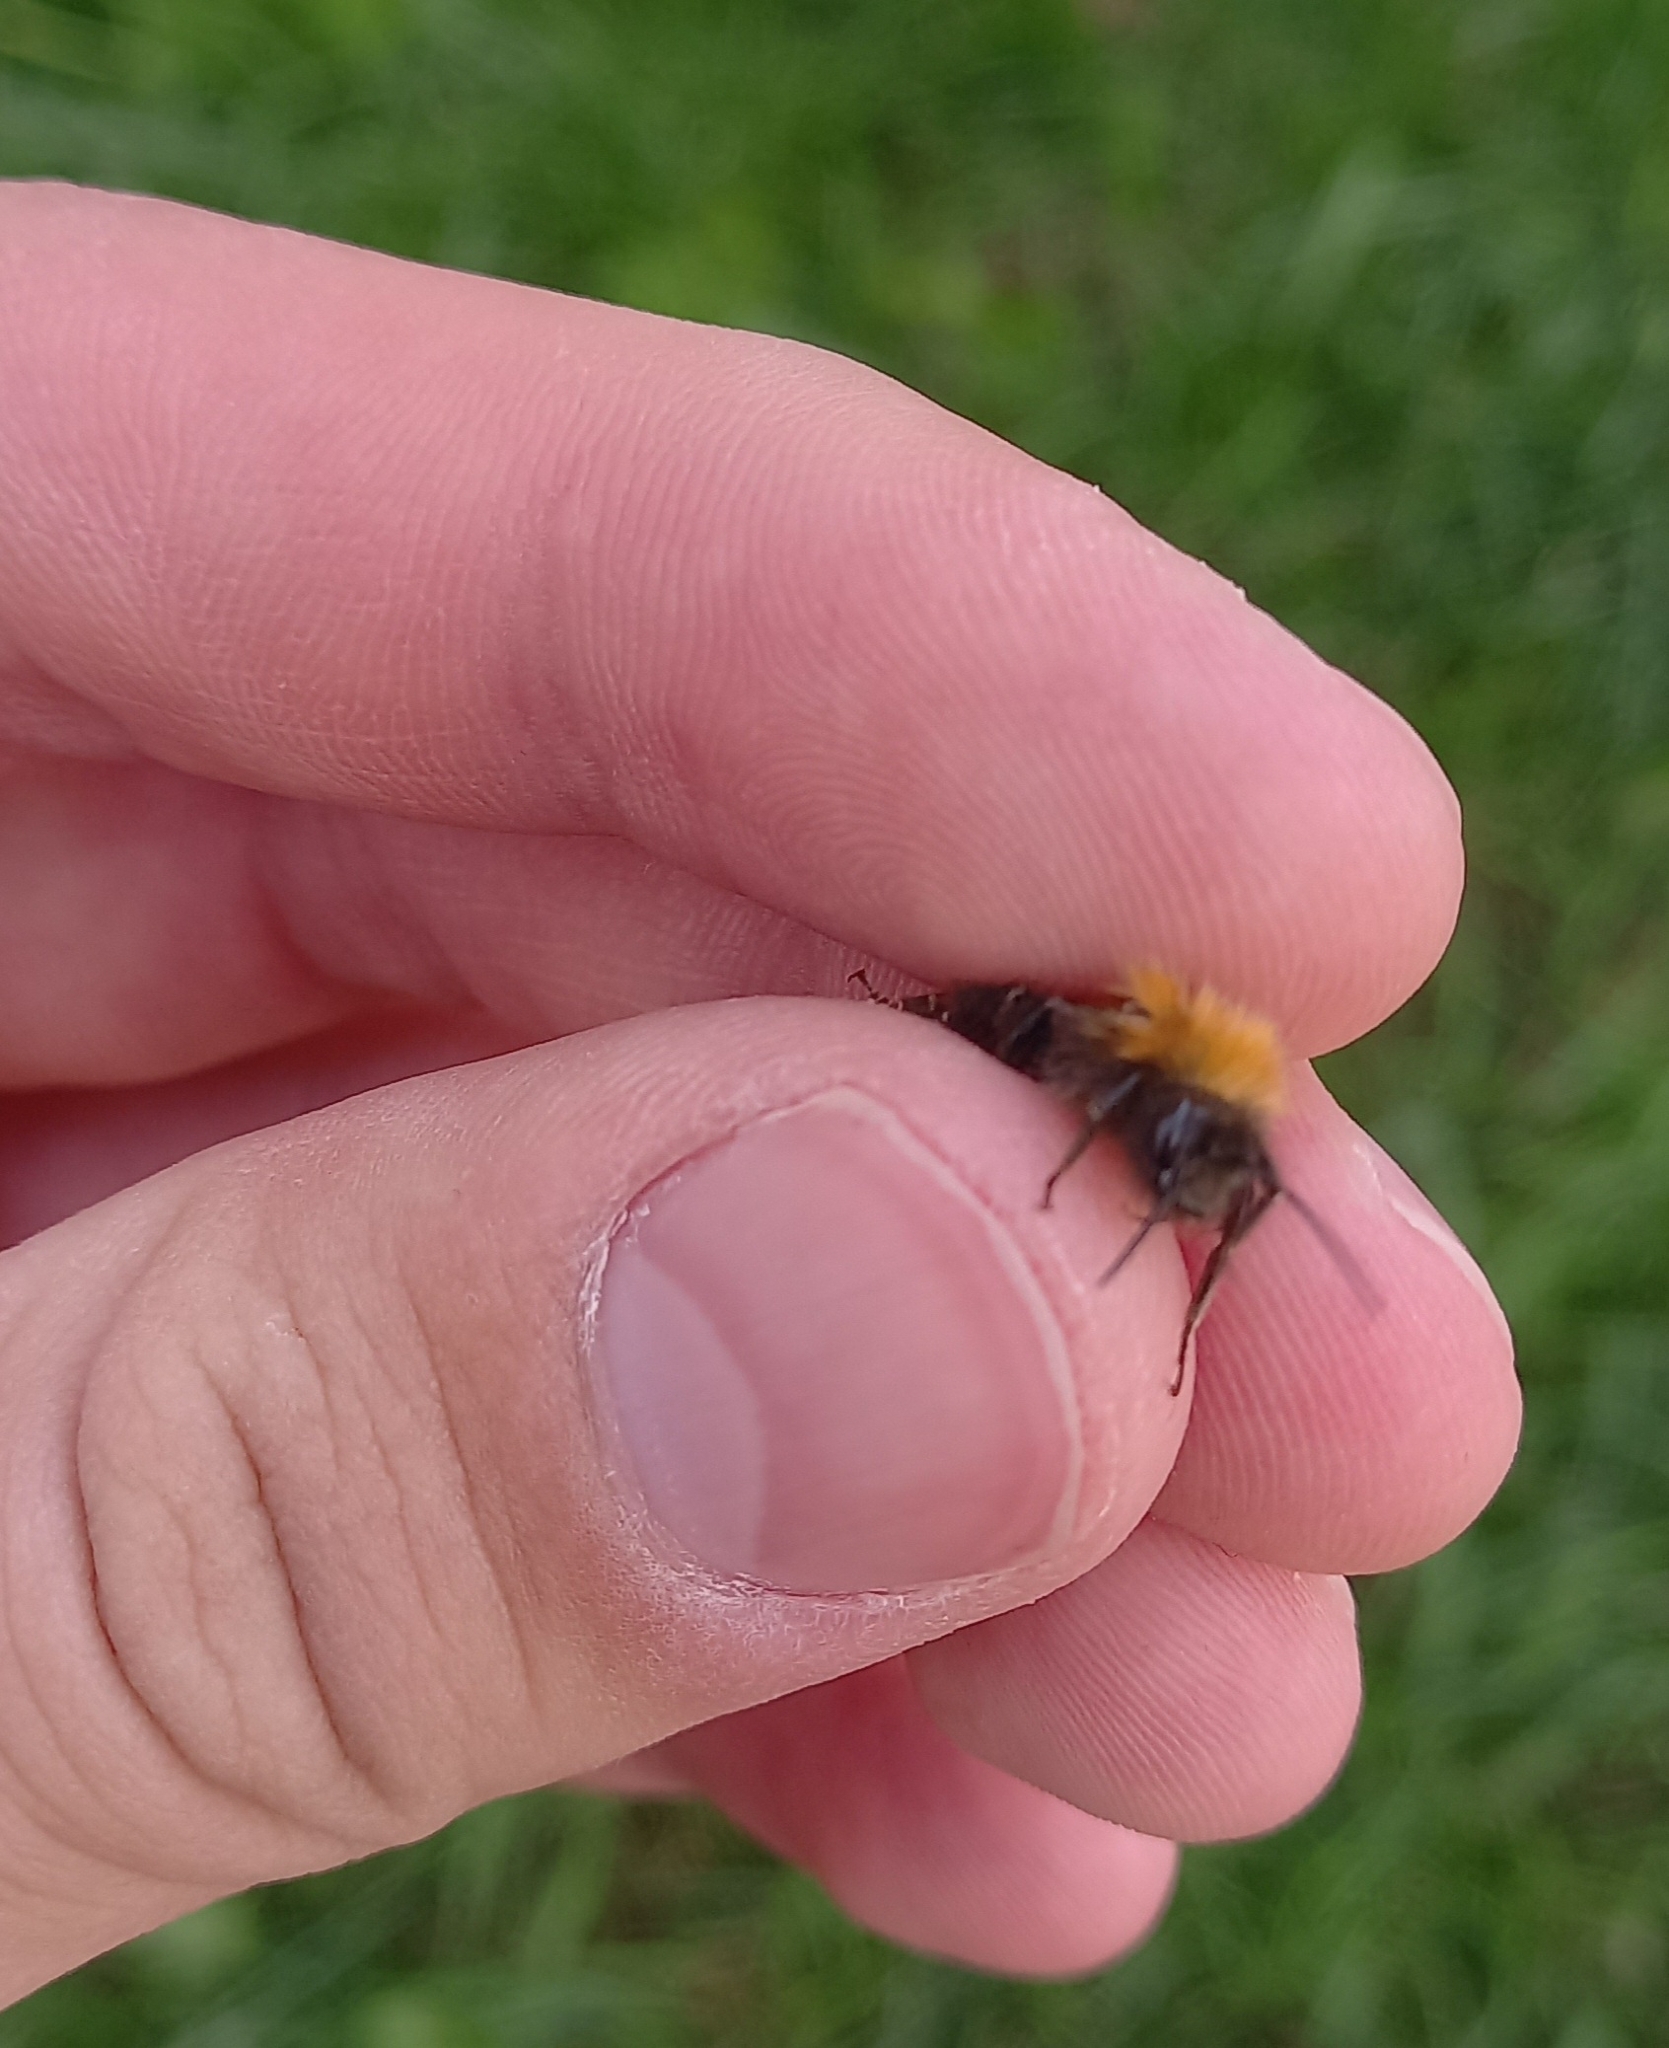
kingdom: Animalia
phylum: Arthropoda
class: Insecta
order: Hymenoptera
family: Apidae
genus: Bombus
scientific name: Bombus hypnorum
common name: New garden bumblebee
